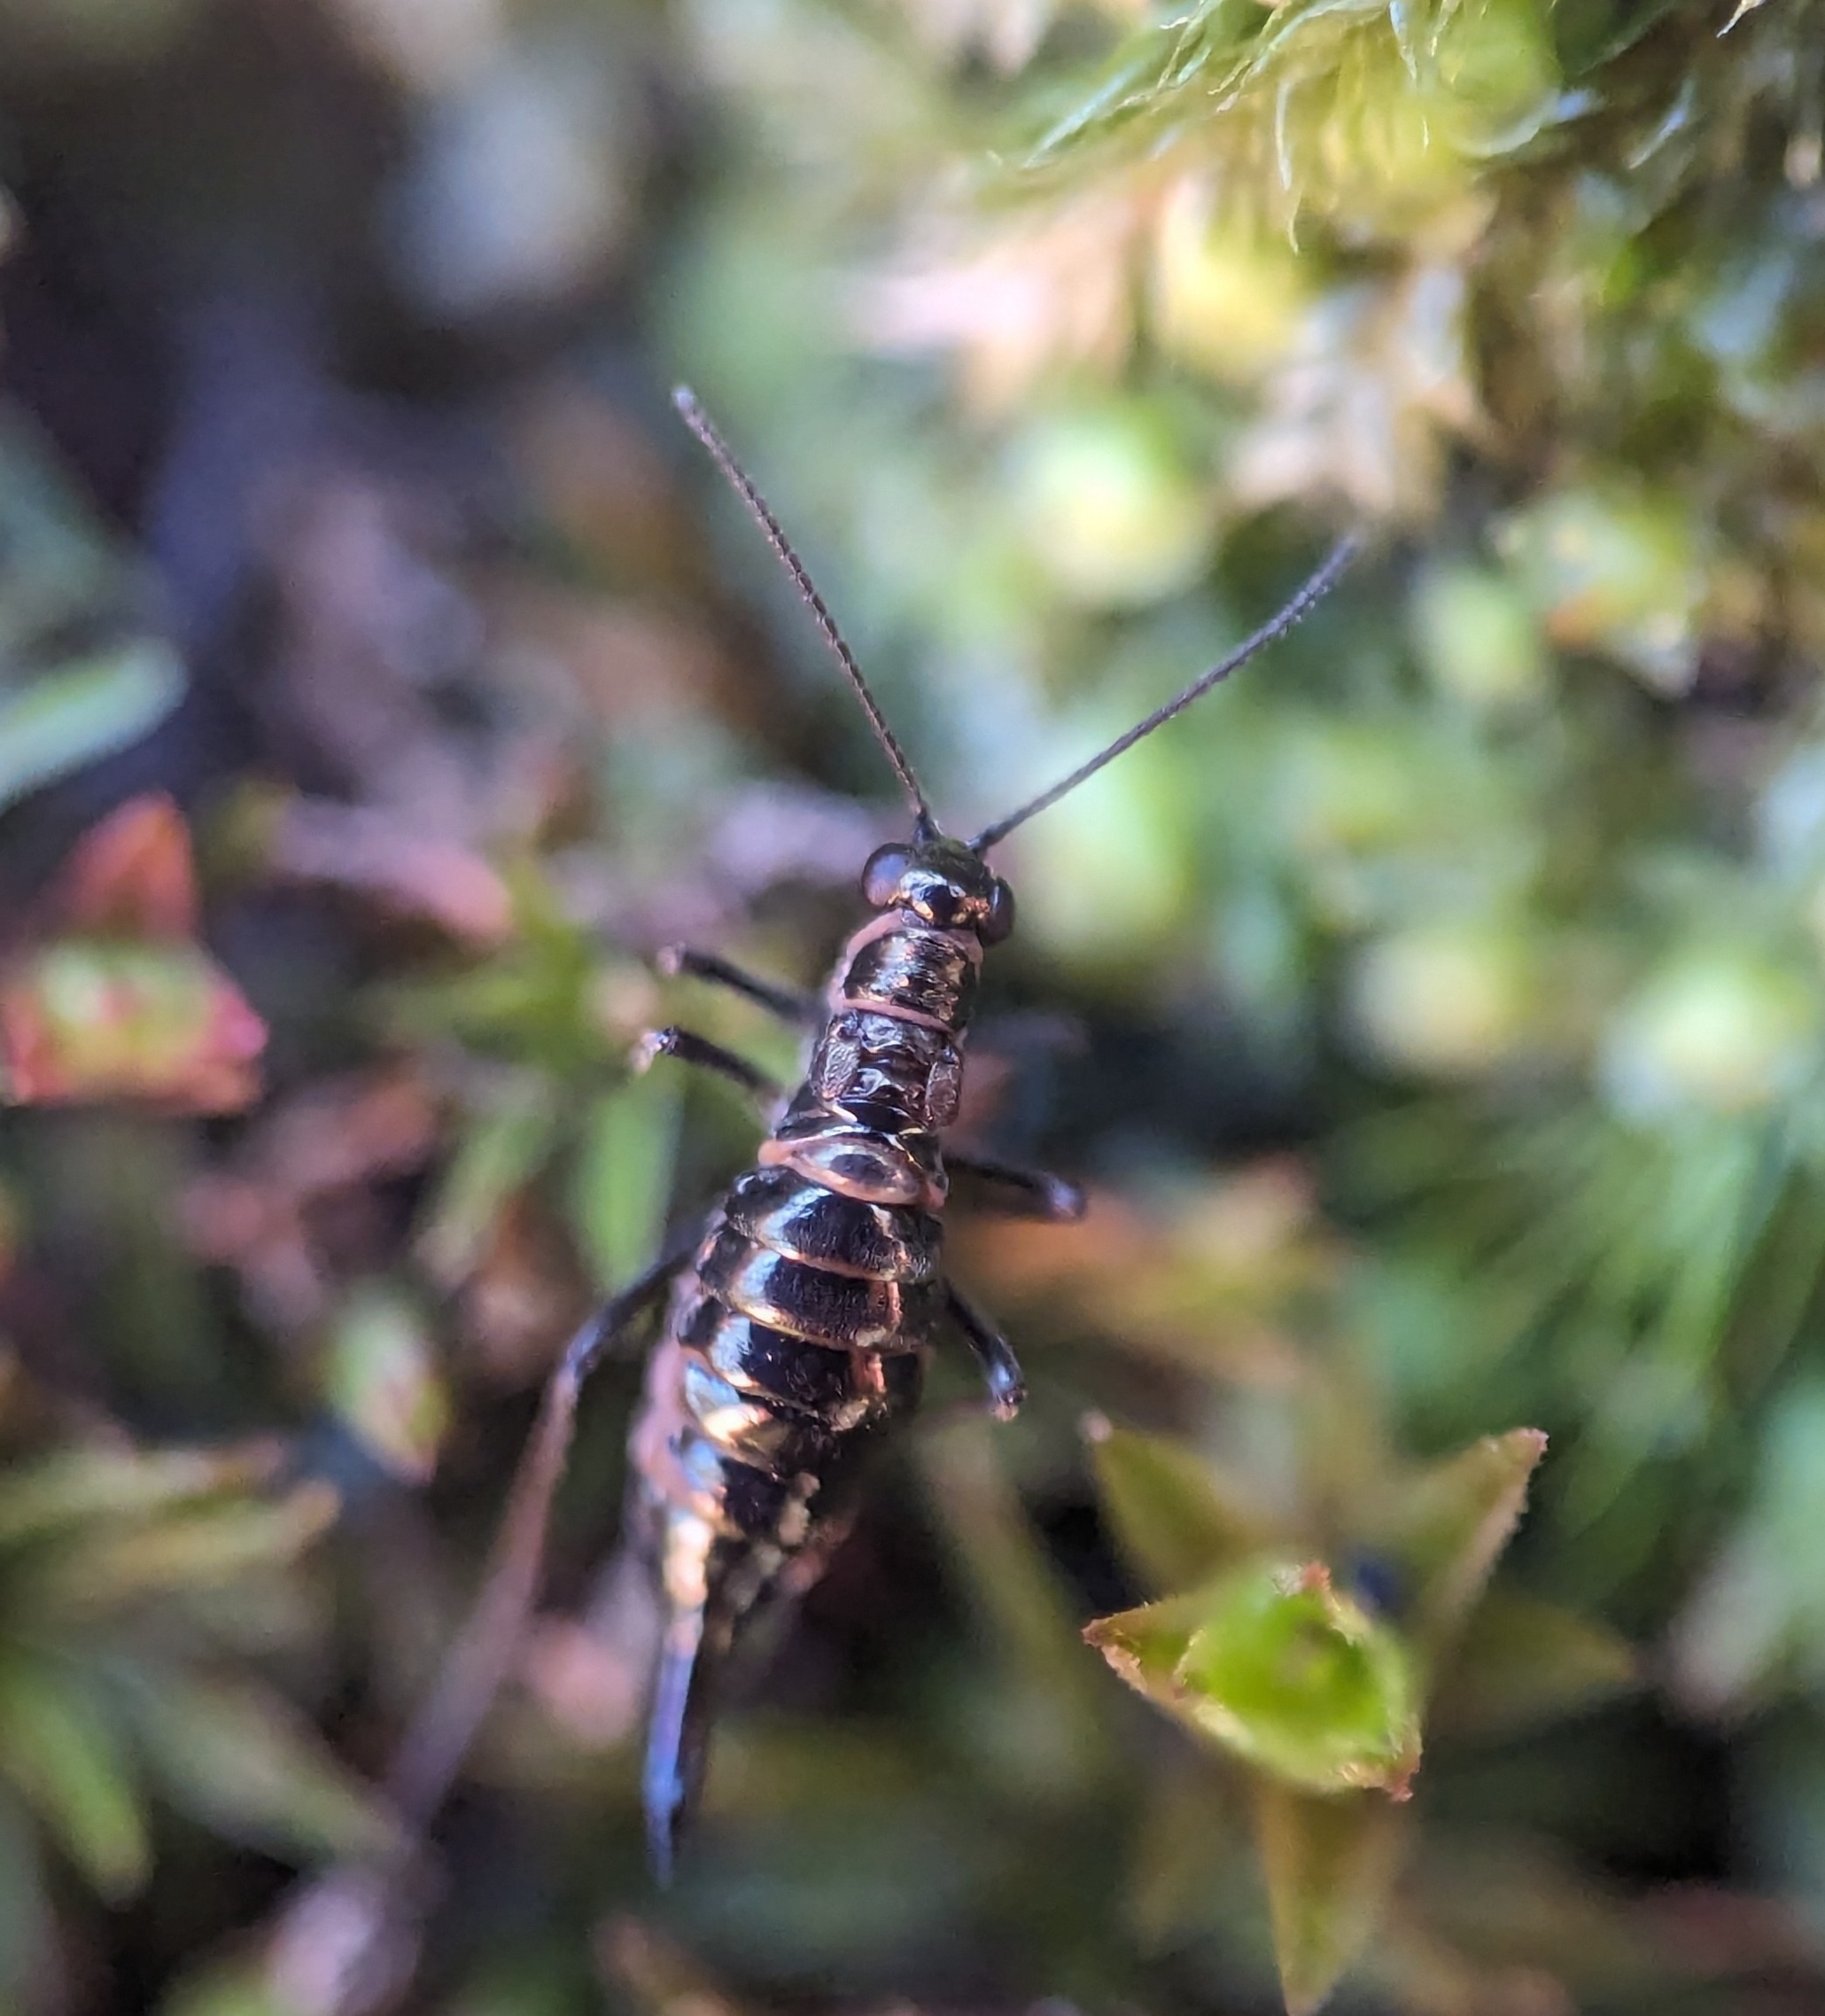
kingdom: Animalia
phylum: Arthropoda
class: Insecta
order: Mecoptera
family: Boreidae
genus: Boreus
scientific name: Boreus brumalis
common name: Mid-winter boreus
